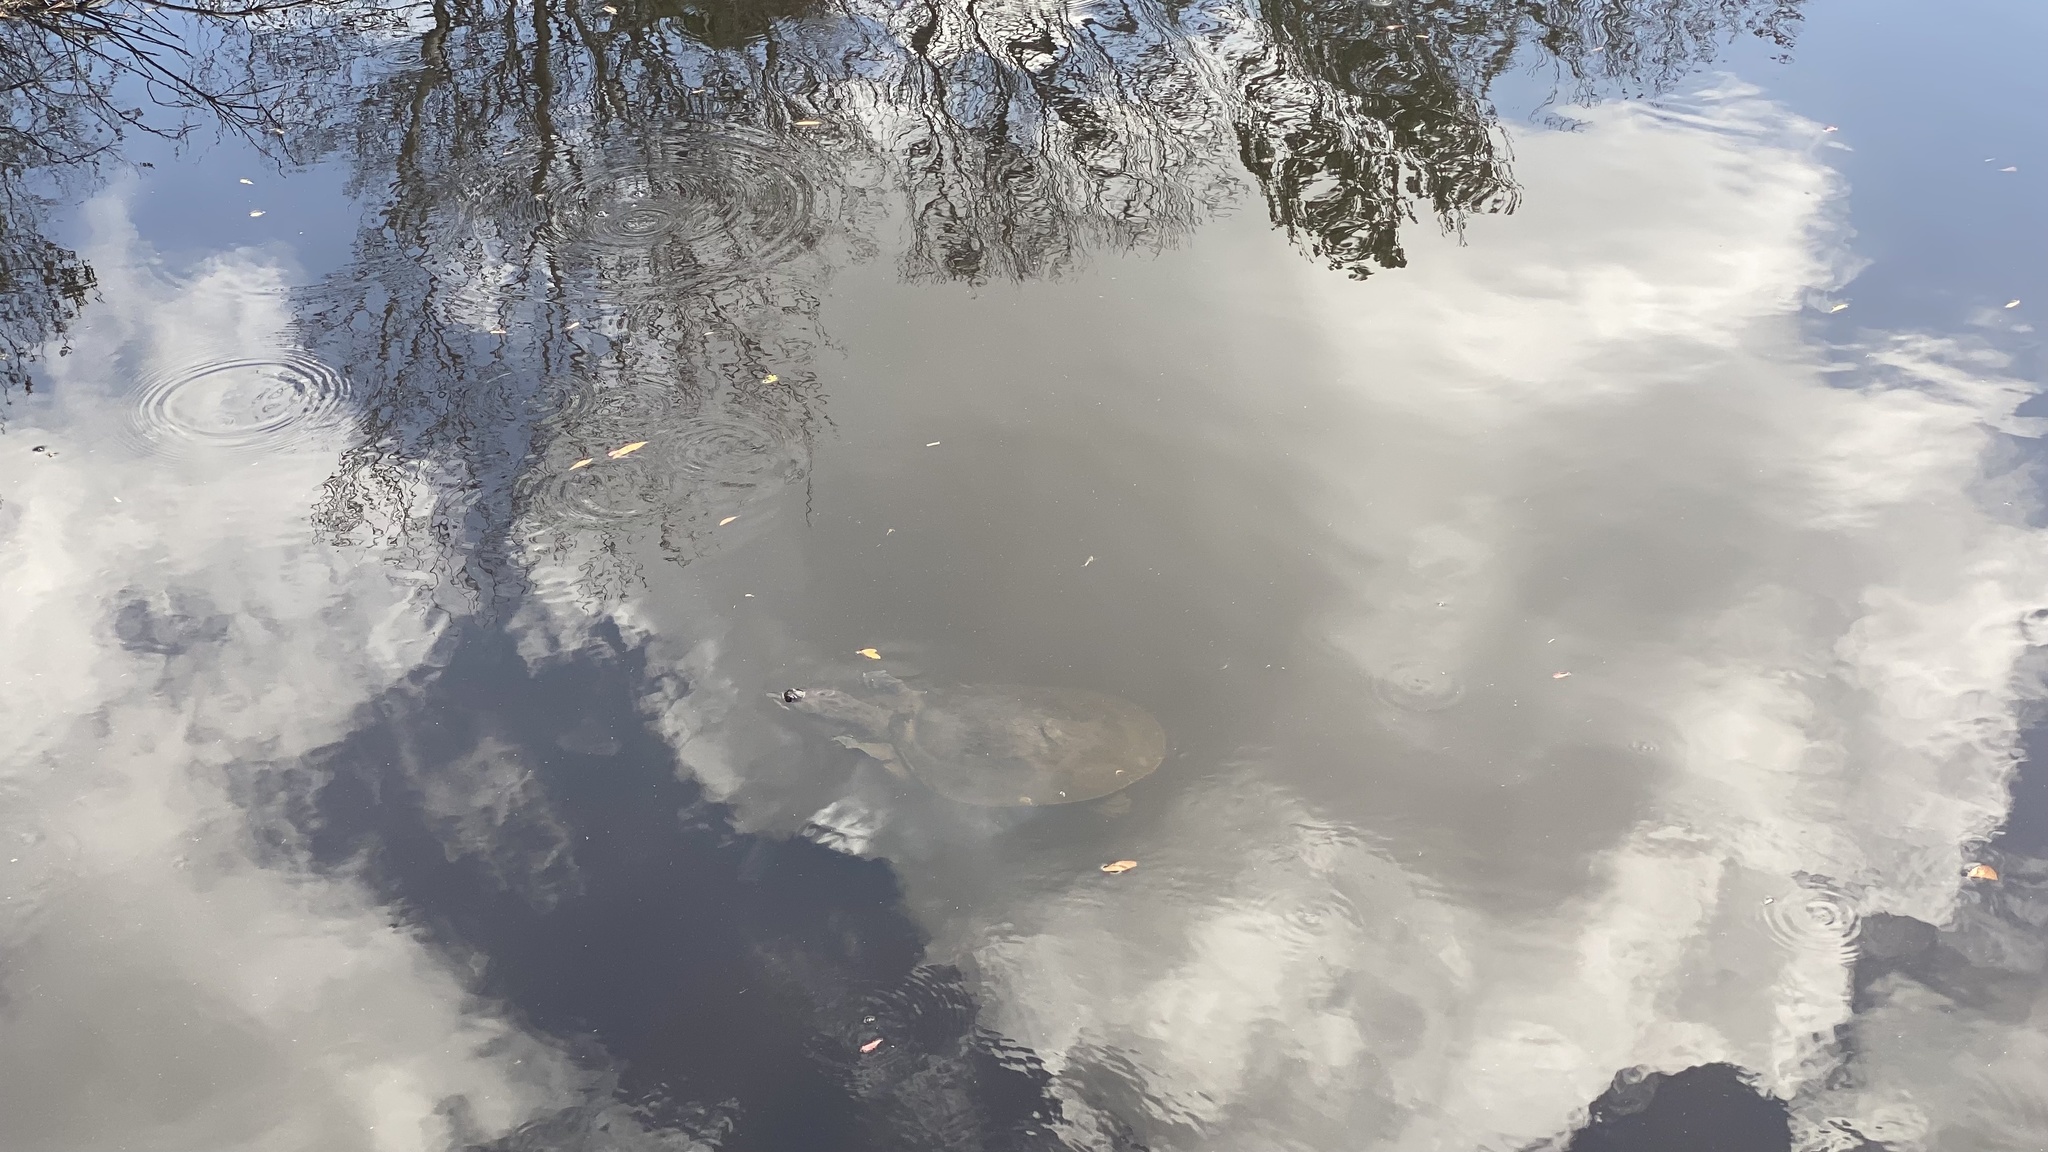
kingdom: Animalia
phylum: Chordata
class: Testudines
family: Trionychidae
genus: Apalone
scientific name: Apalone ferox
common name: Florida softshell turtle
